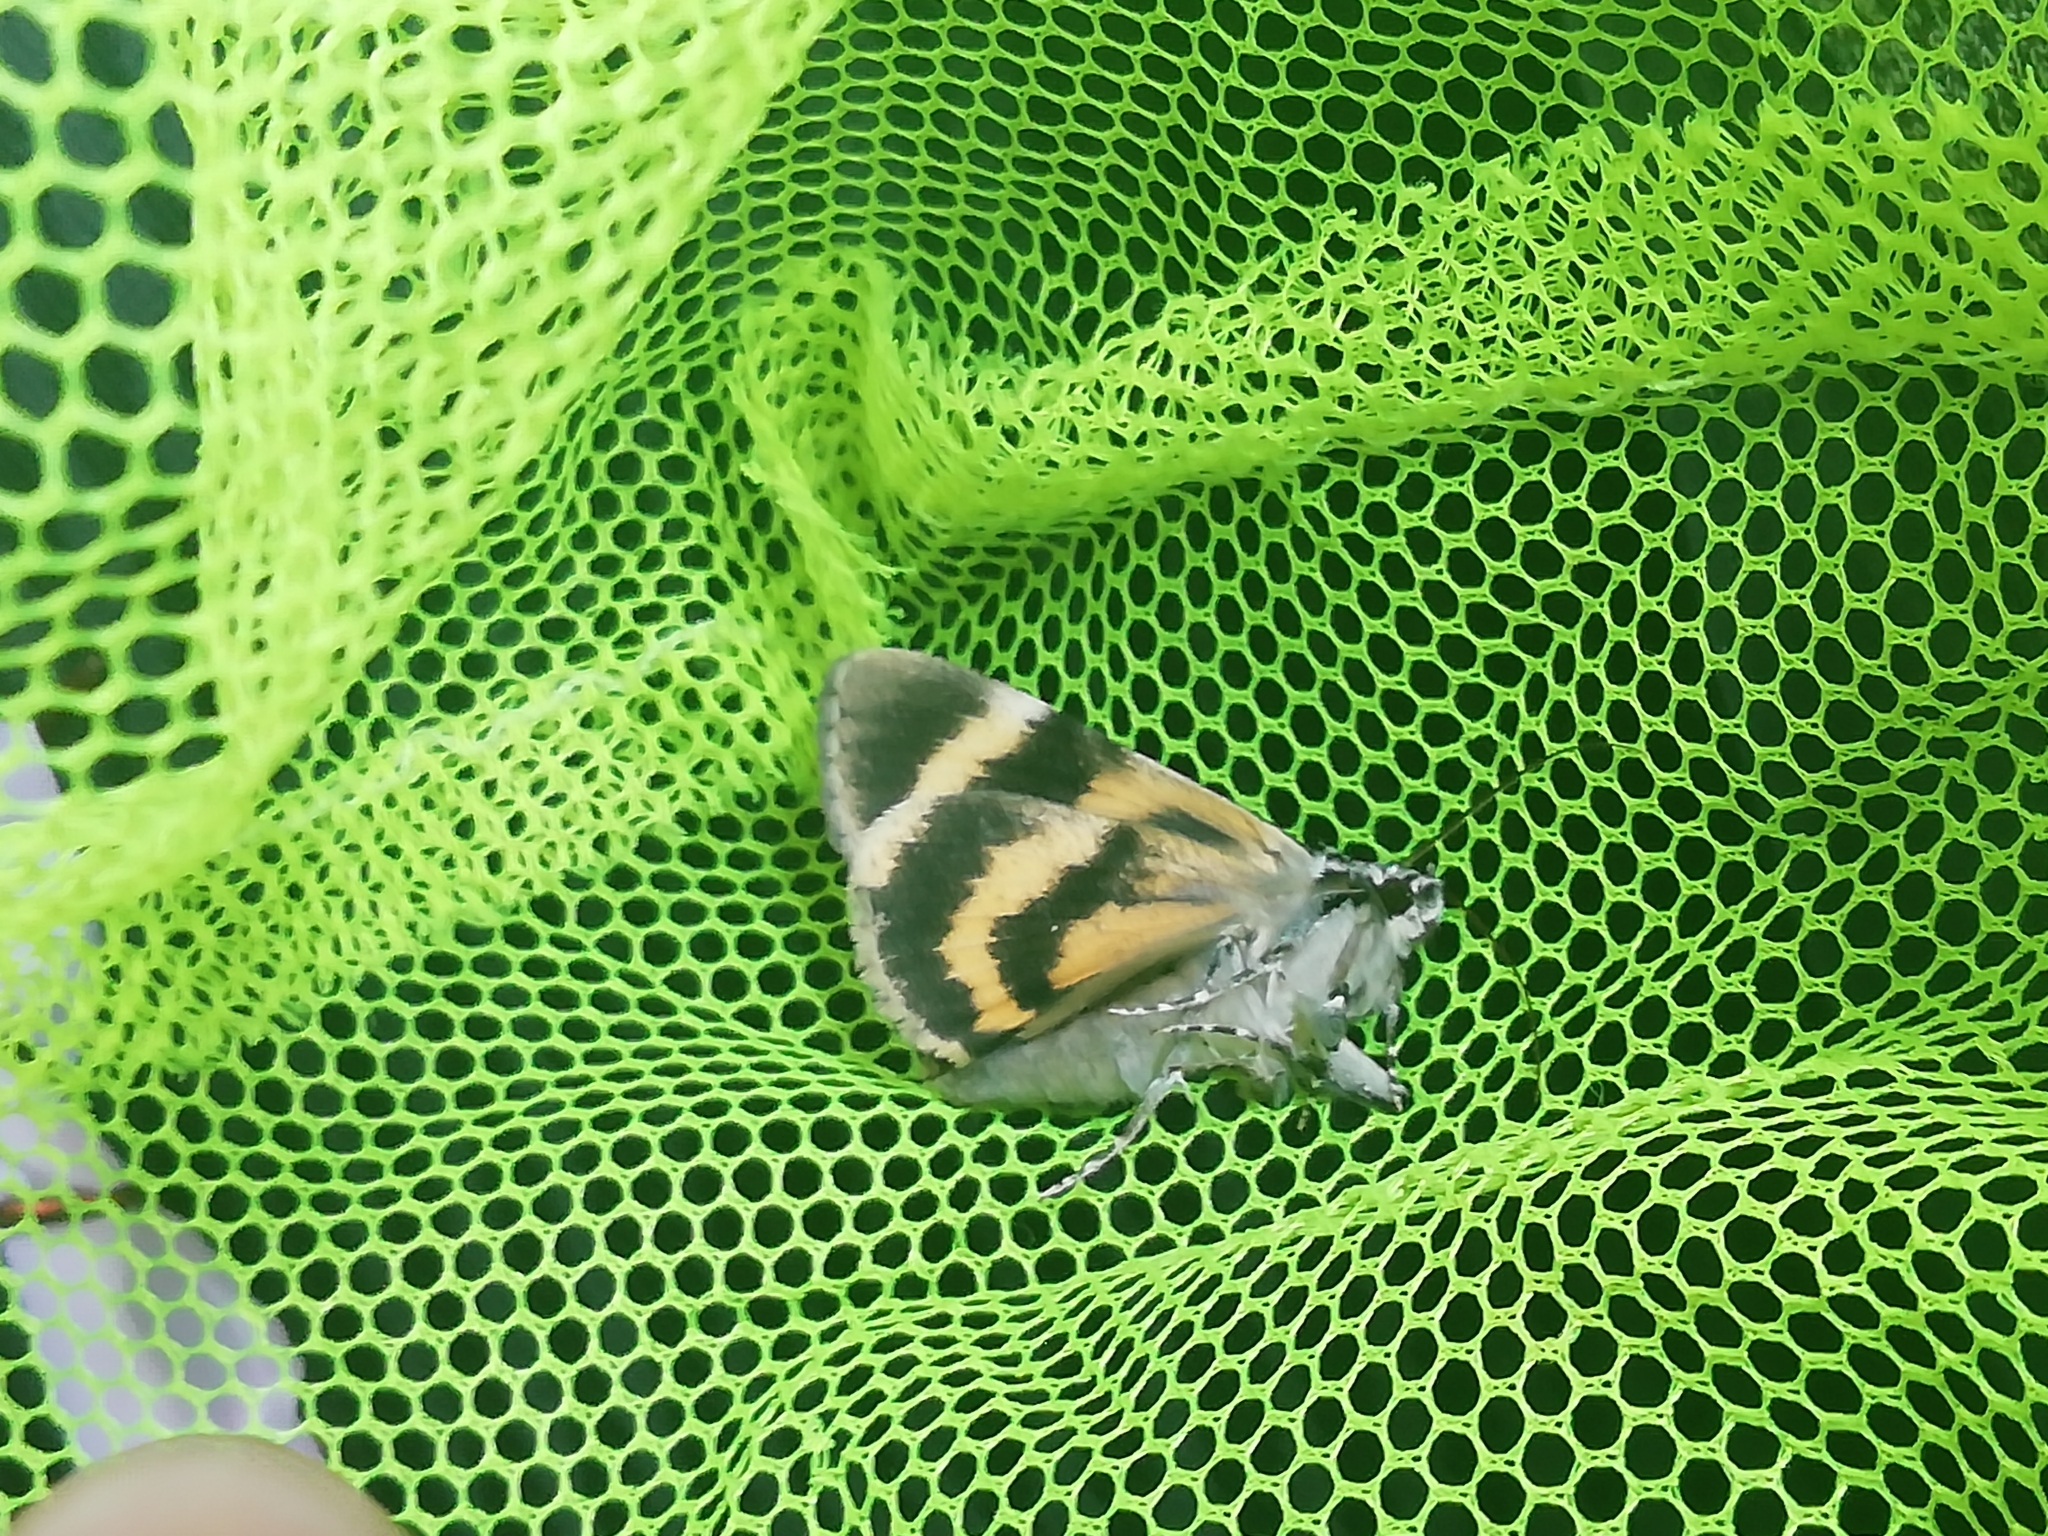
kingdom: Animalia
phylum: Arthropoda
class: Insecta
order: Lepidoptera
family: Erebidae
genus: Catocala
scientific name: Catocala fulminea
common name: Yellow bands underwing
